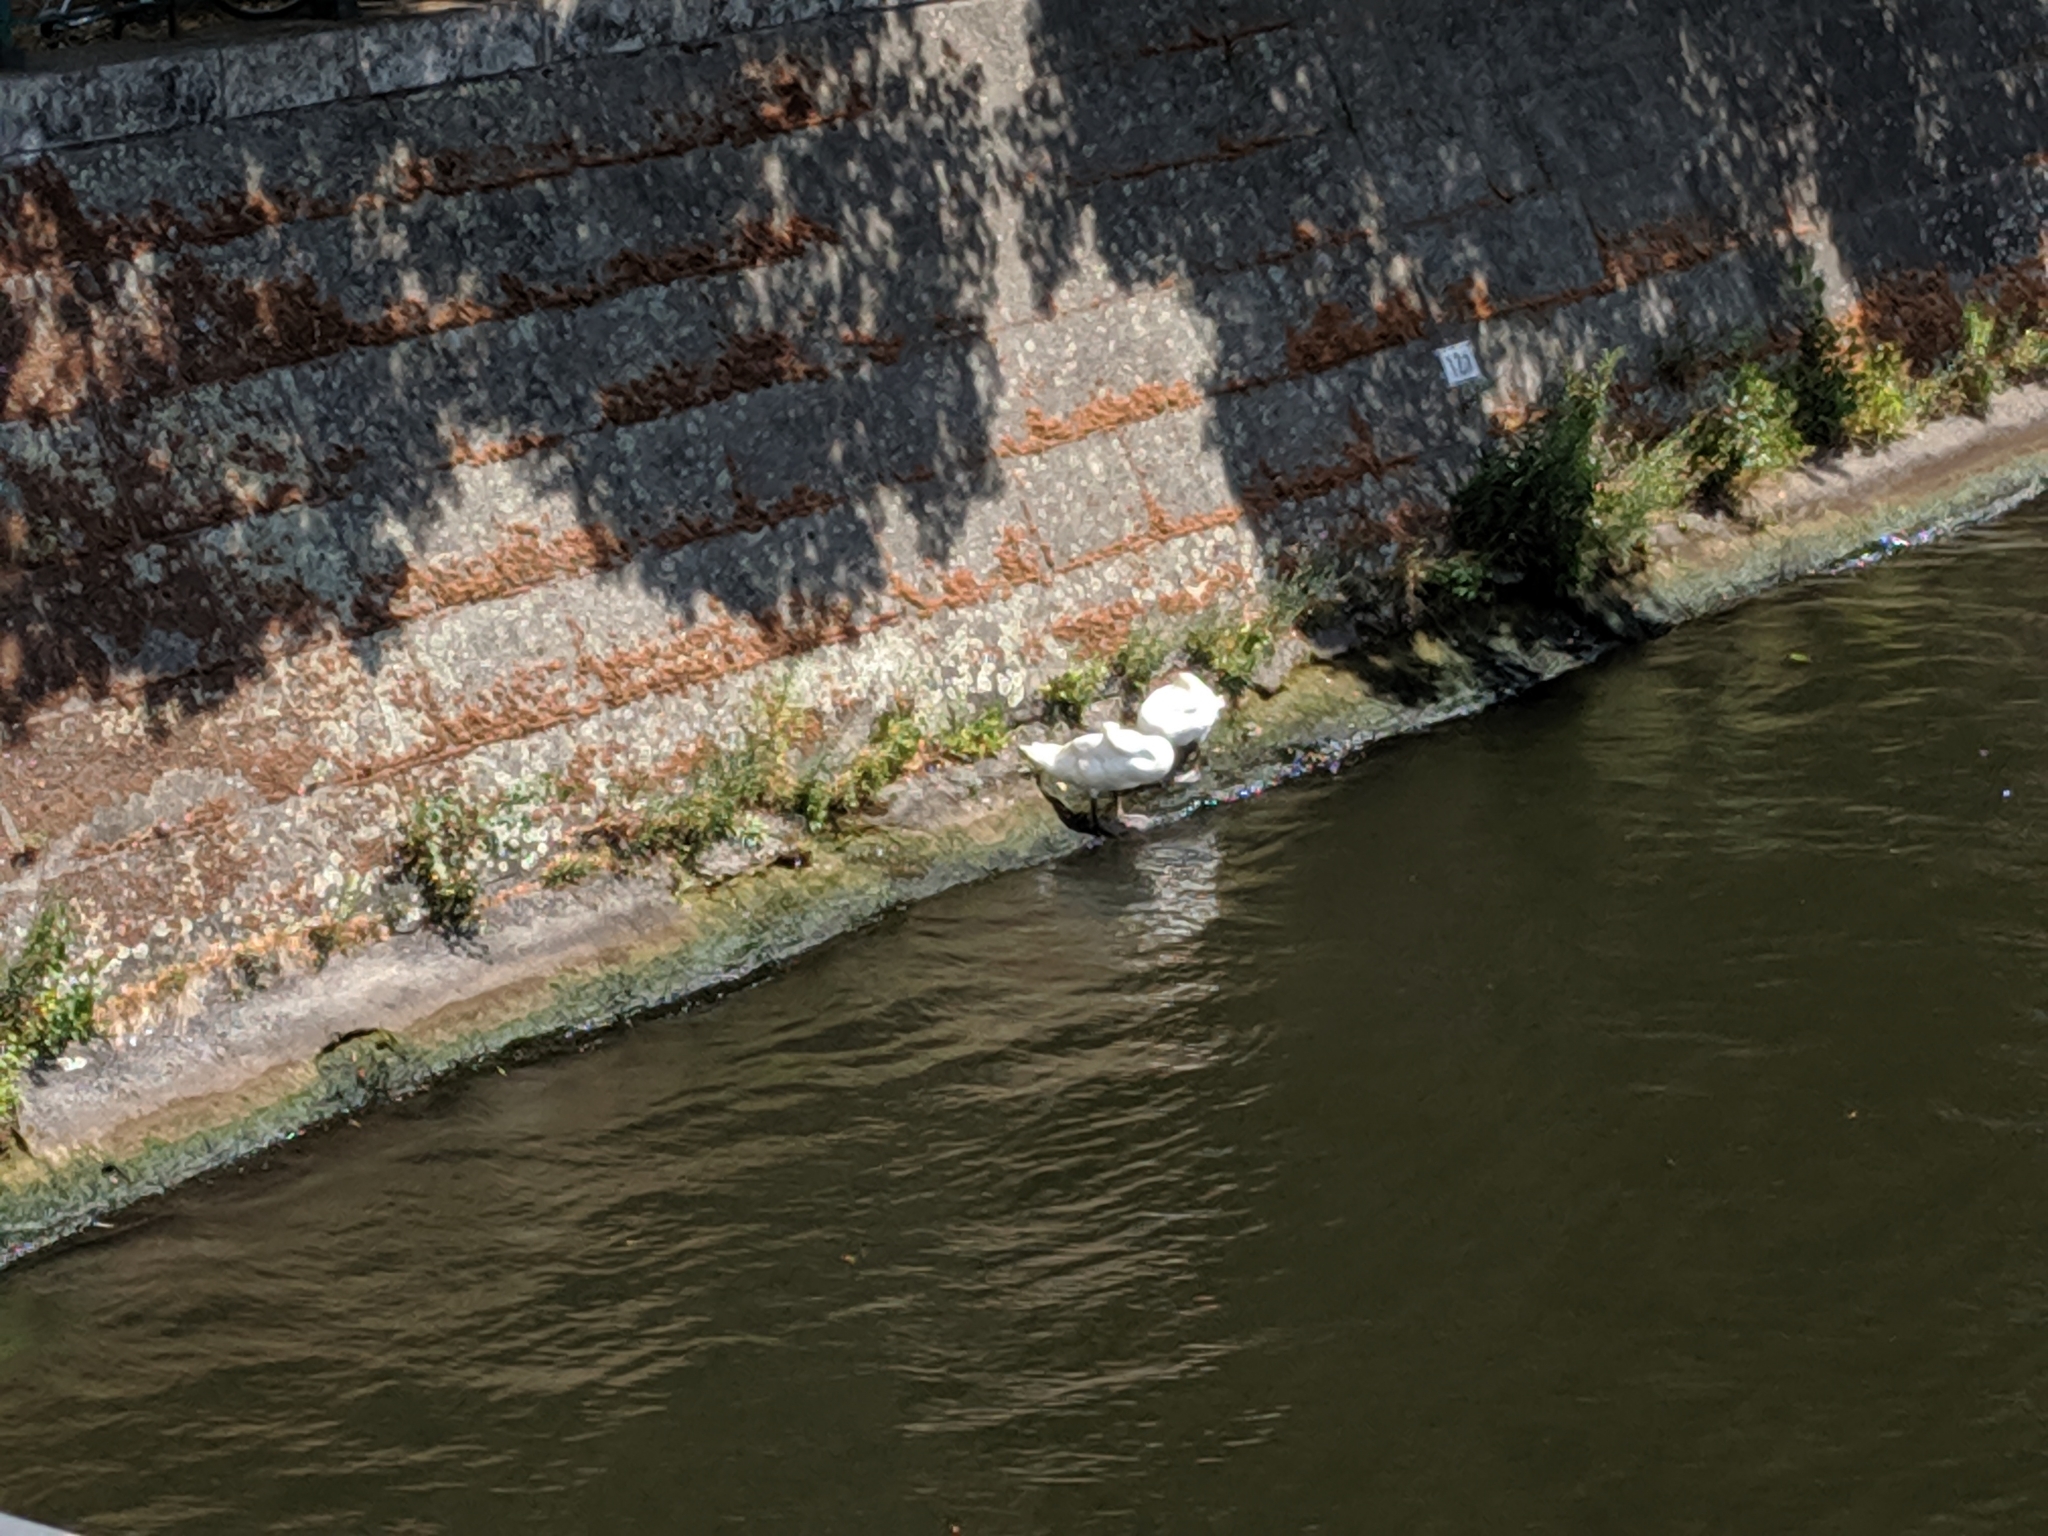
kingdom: Animalia
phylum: Chordata
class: Aves
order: Anseriformes
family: Anatidae
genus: Cygnus
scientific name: Cygnus olor
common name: Mute swan
